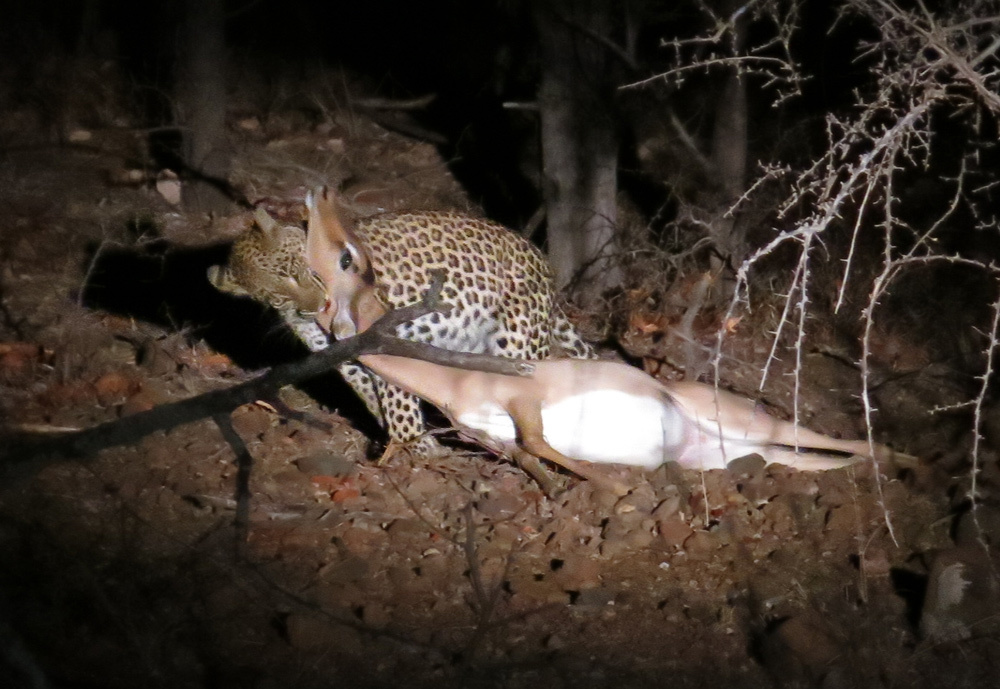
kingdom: Animalia
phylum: Chordata
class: Mammalia
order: Carnivora
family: Felidae
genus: Panthera
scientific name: Panthera pardus
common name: Leopard
